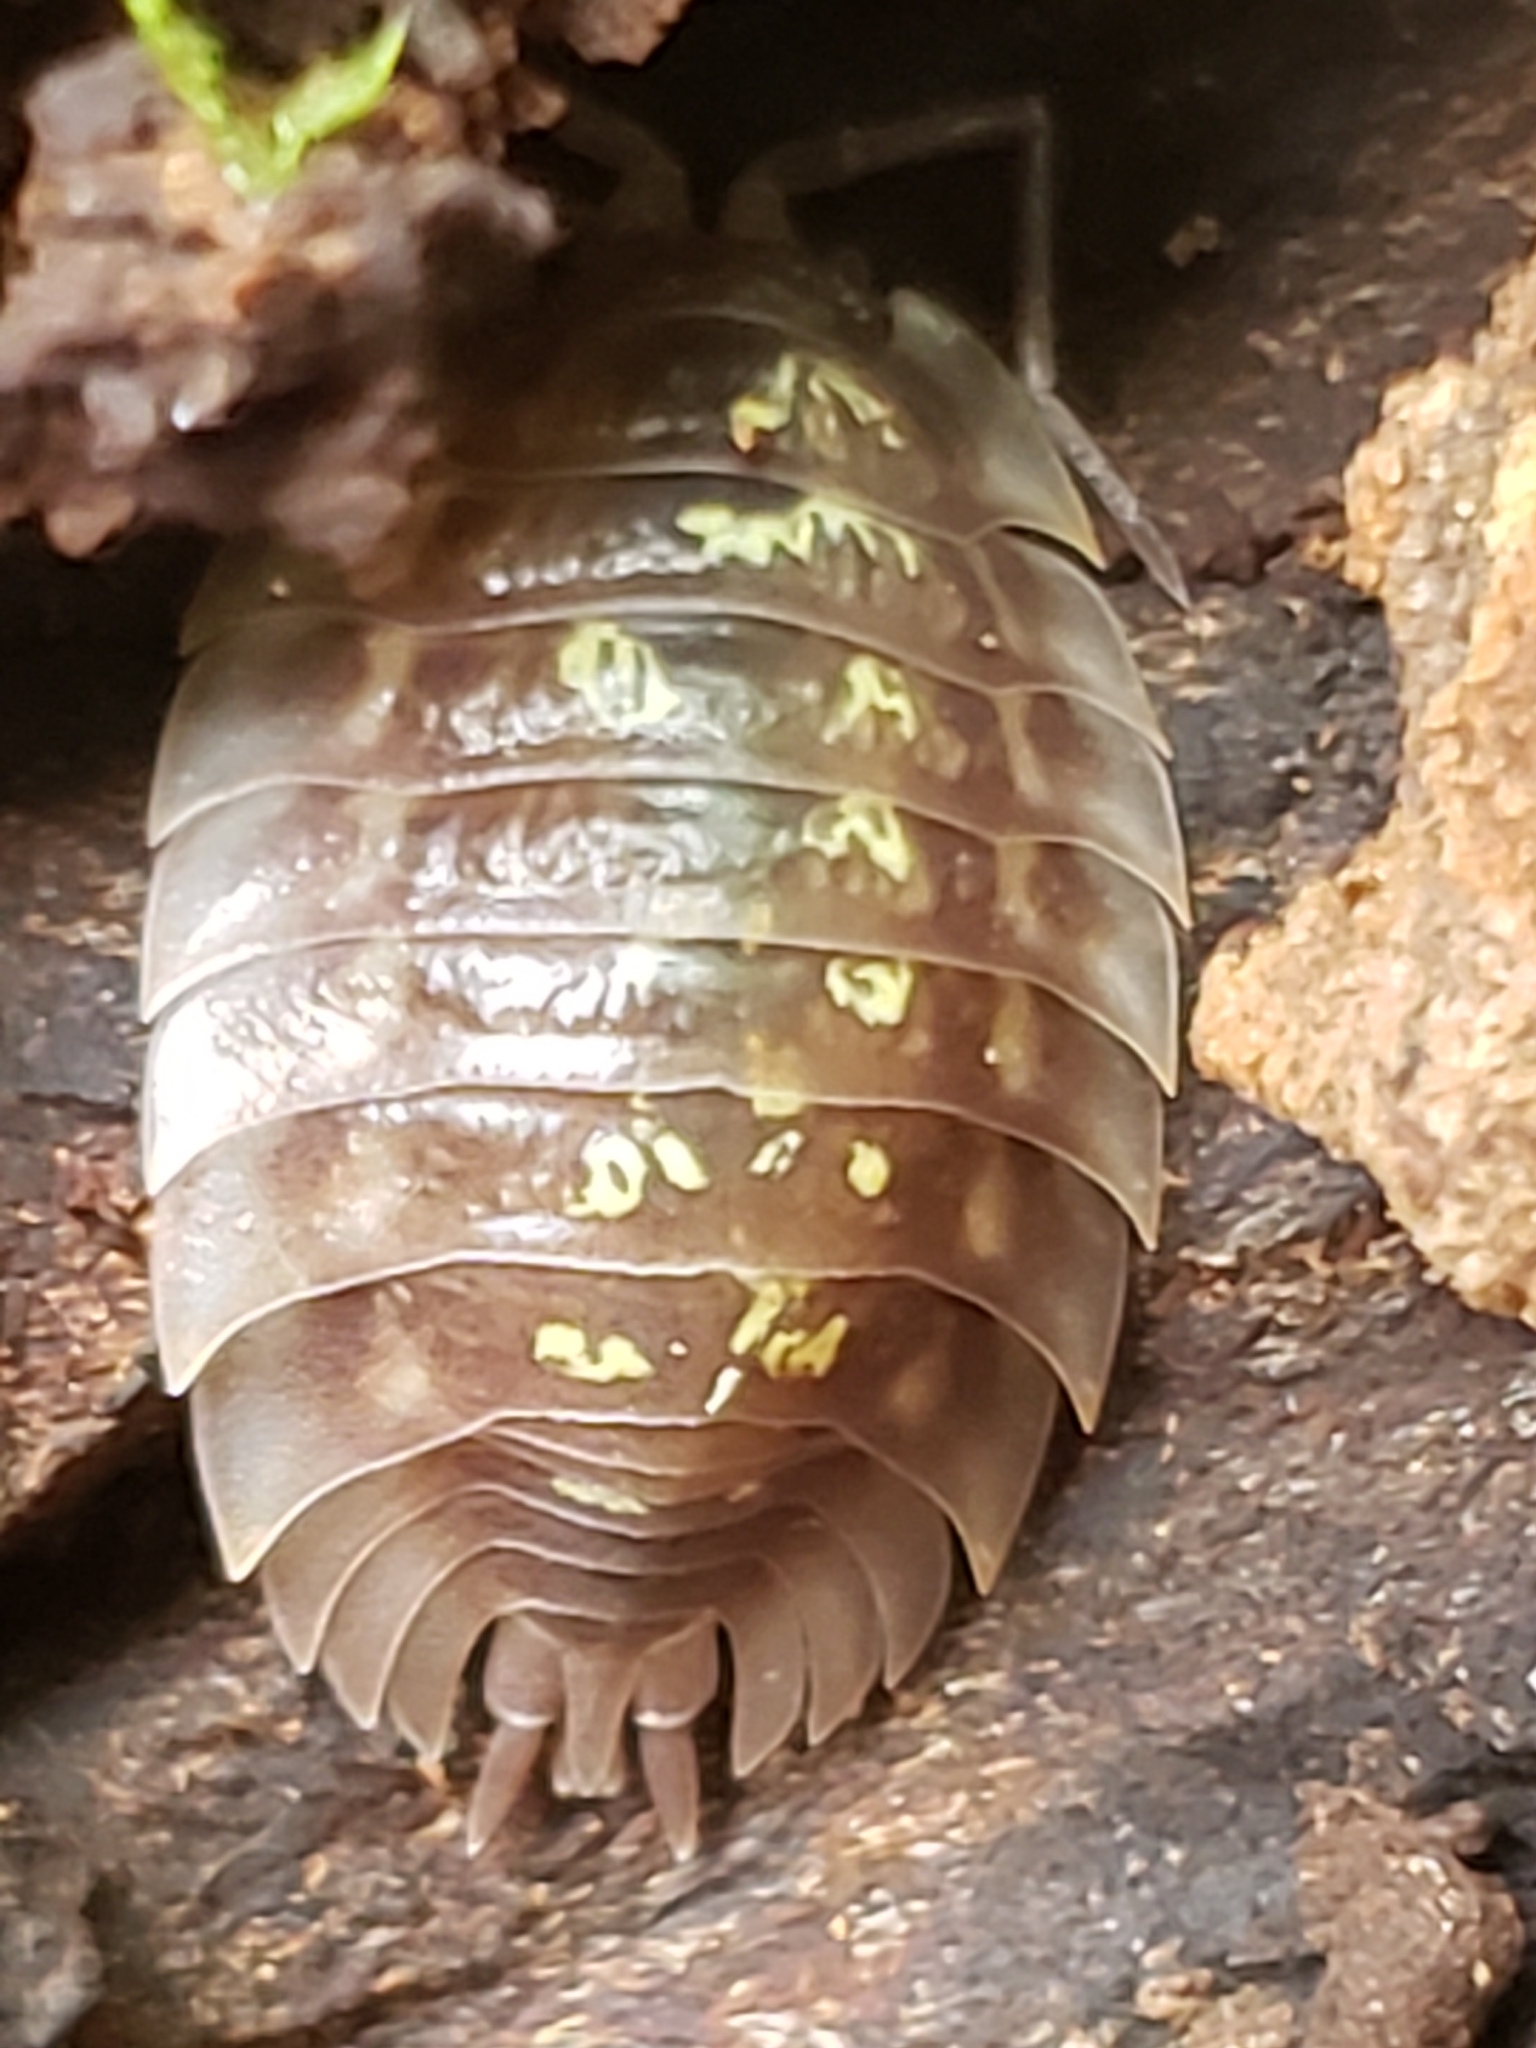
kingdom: Animalia
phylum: Arthropoda
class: Malacostraca
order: Isopoda
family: Oniscidae
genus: Oniscus
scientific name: Oniscus asellus
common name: Common shiny woodlouse
